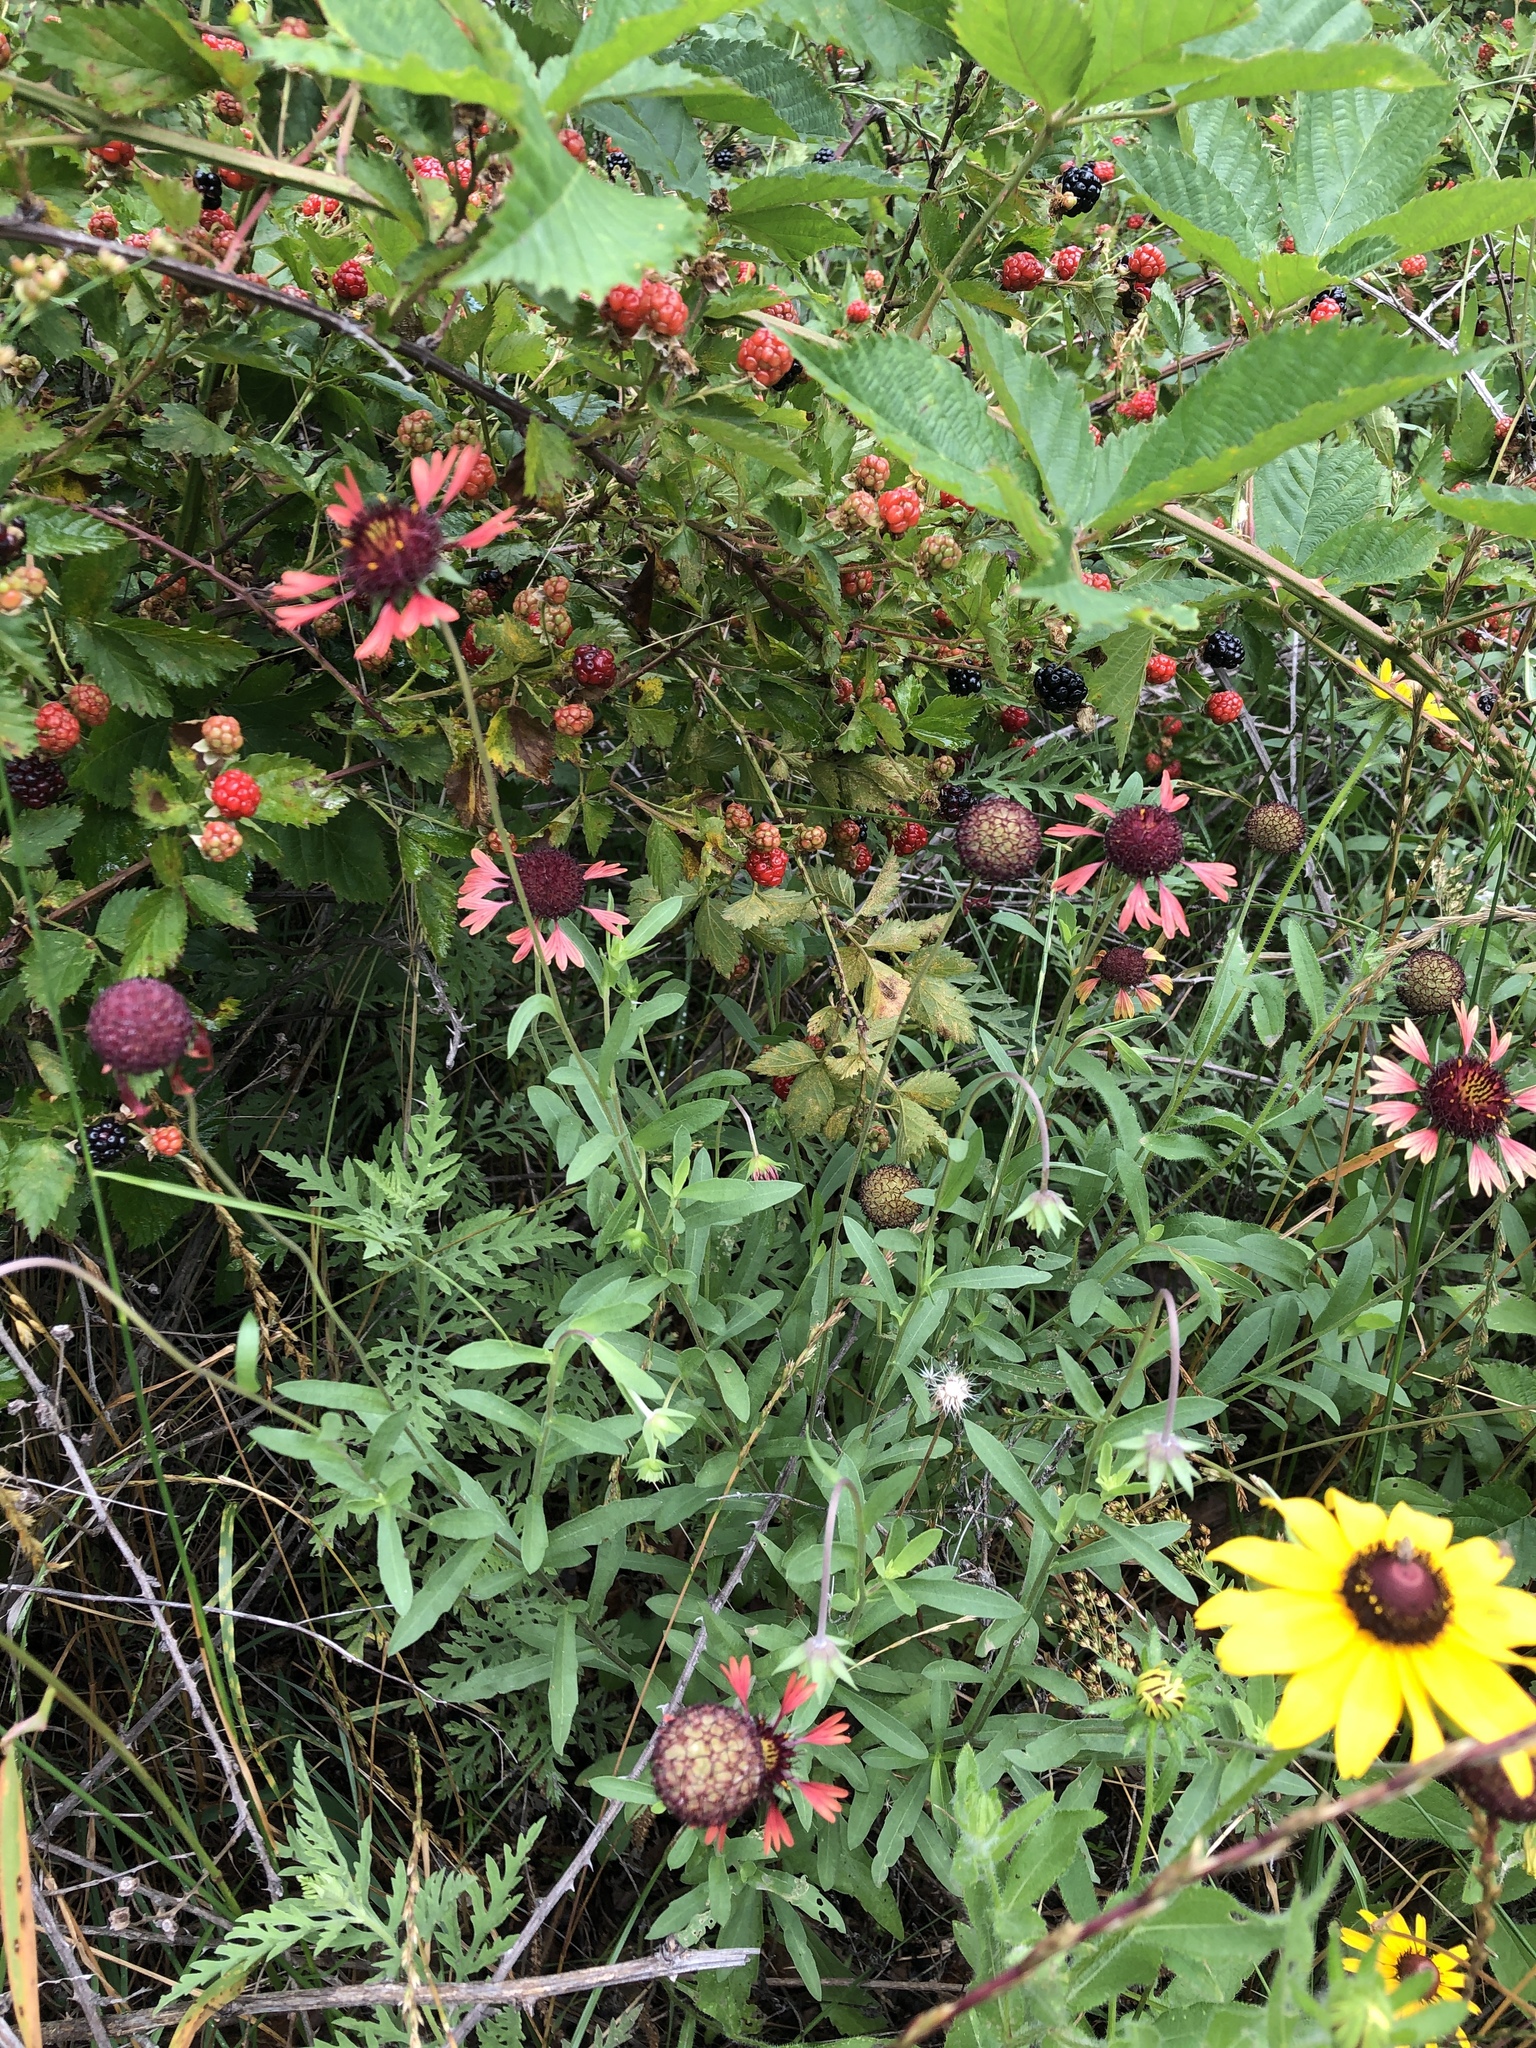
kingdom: Plantae
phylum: Tracheophyta
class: Magnoliopsida
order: Asterales
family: Asteraceae
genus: Gaillardia
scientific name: Gaillardia aestivalis
